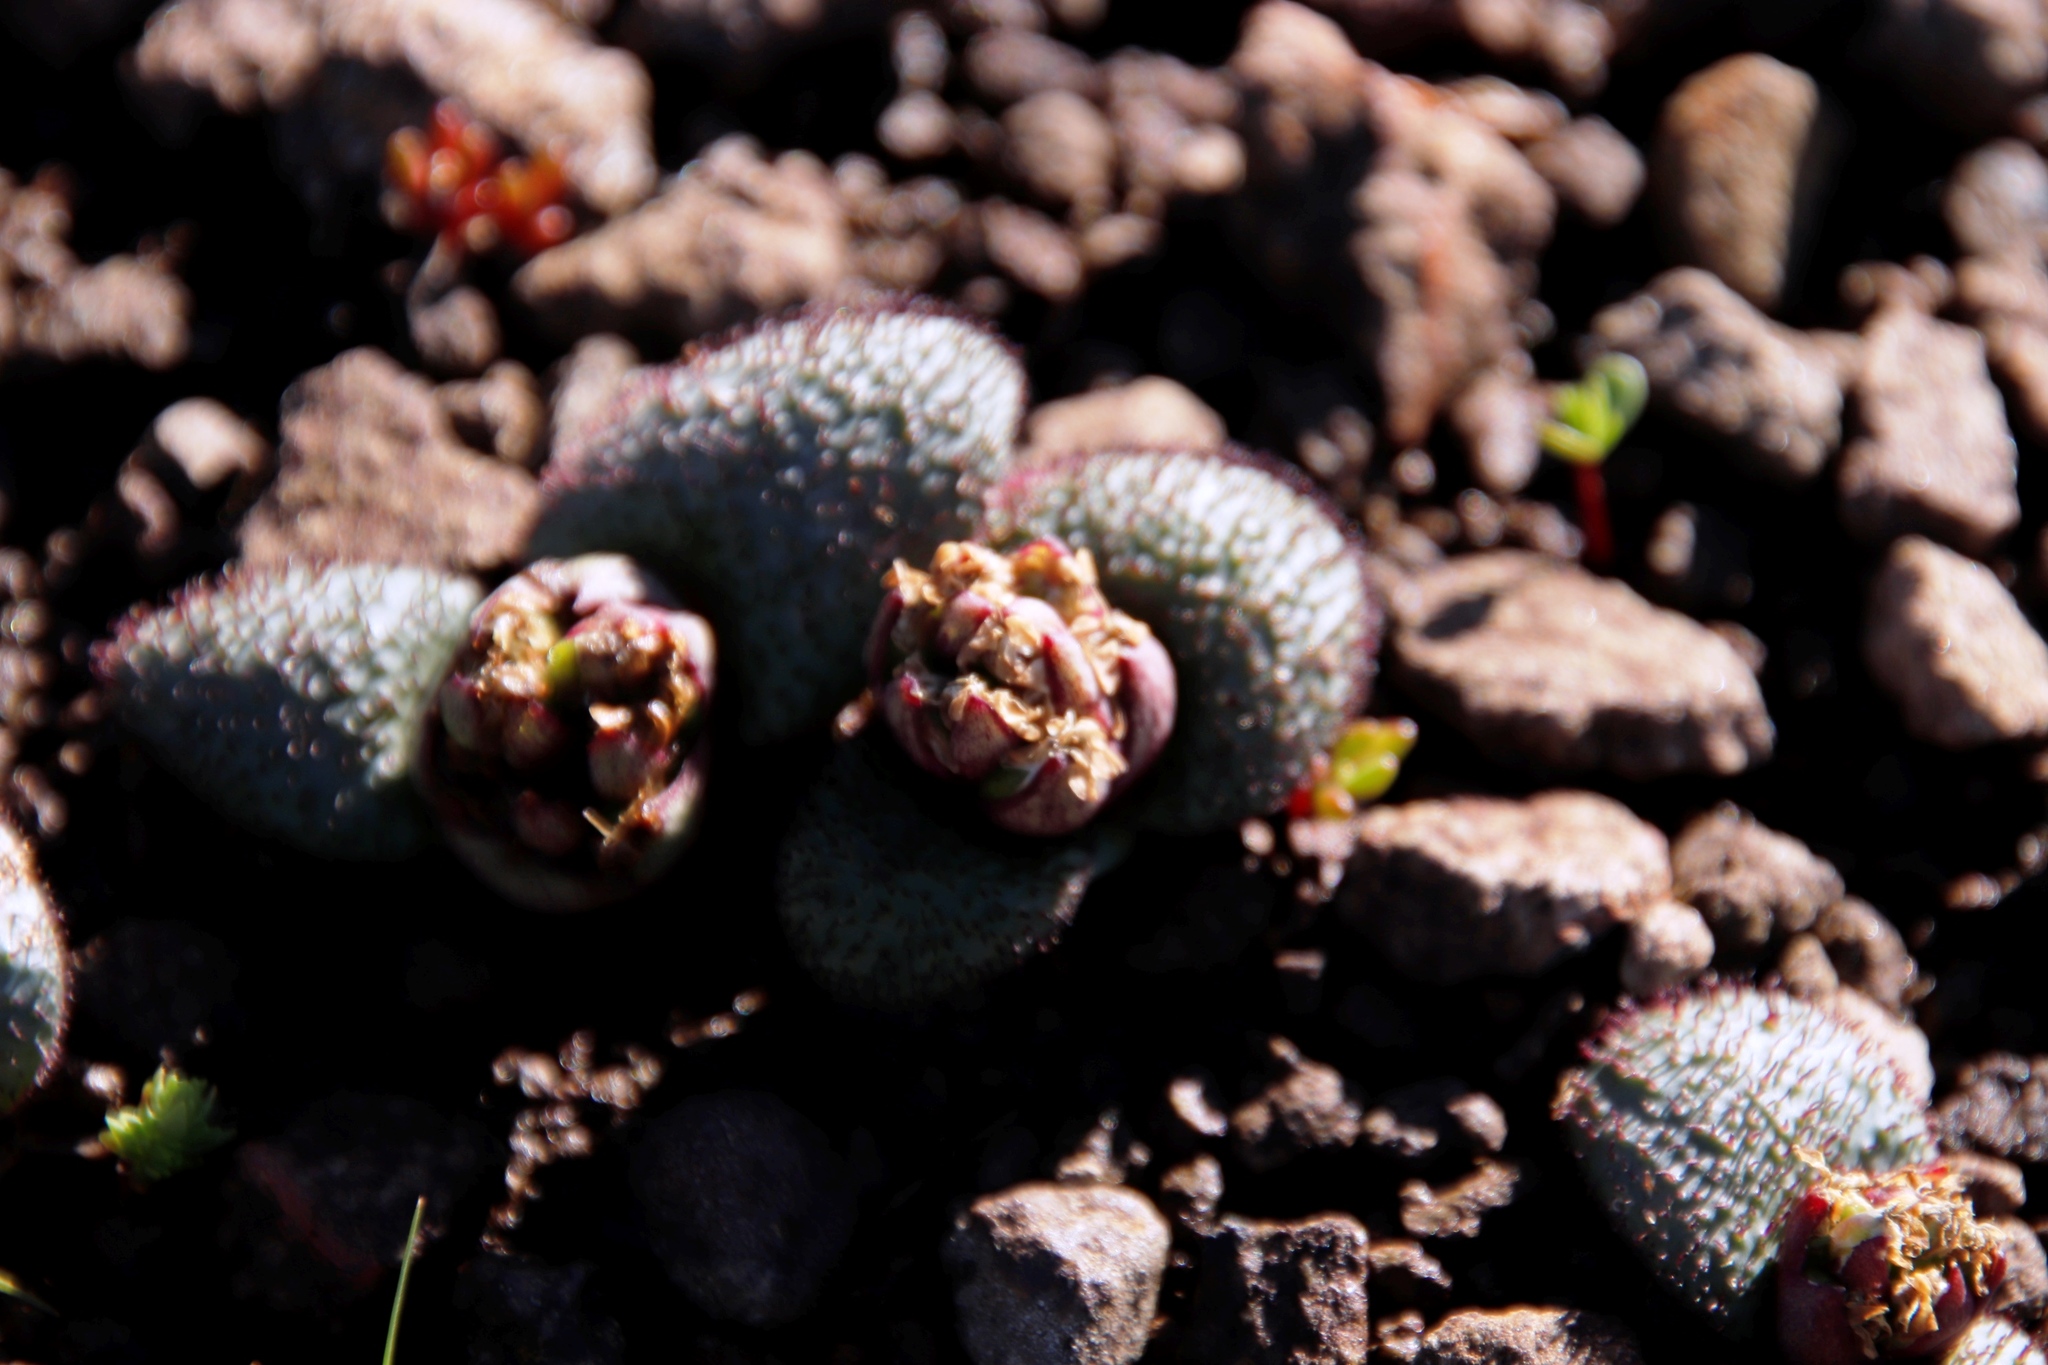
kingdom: Plantae
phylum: Tracheophyta
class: Liliopsida
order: Asparagales
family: Asparagaceae
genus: Massonia
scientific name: Massonia wittebergensis
